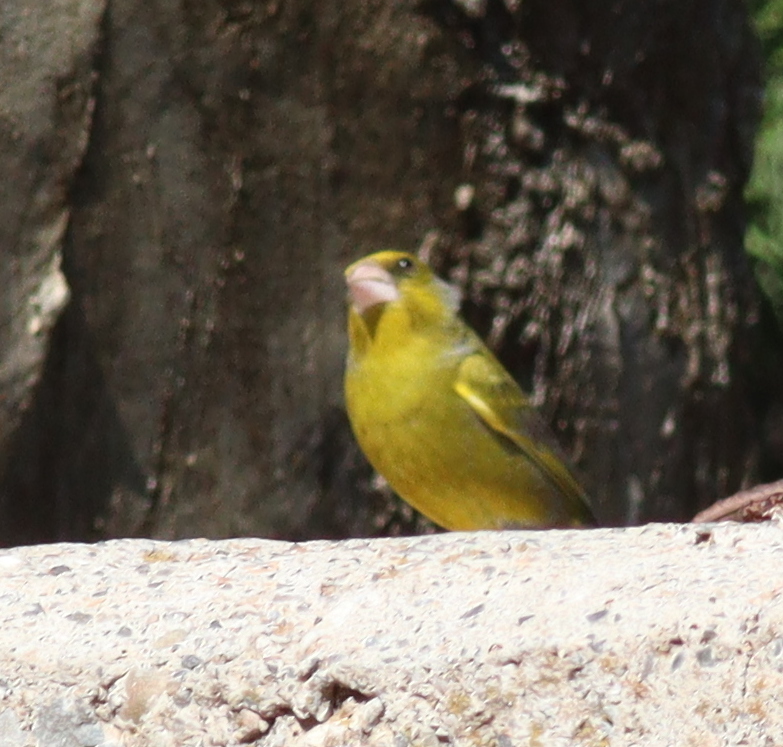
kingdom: Plantae
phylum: Tracheophyta
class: Liliopsida
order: Poales
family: Poaceae
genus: Chloris
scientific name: Chloris chloris
